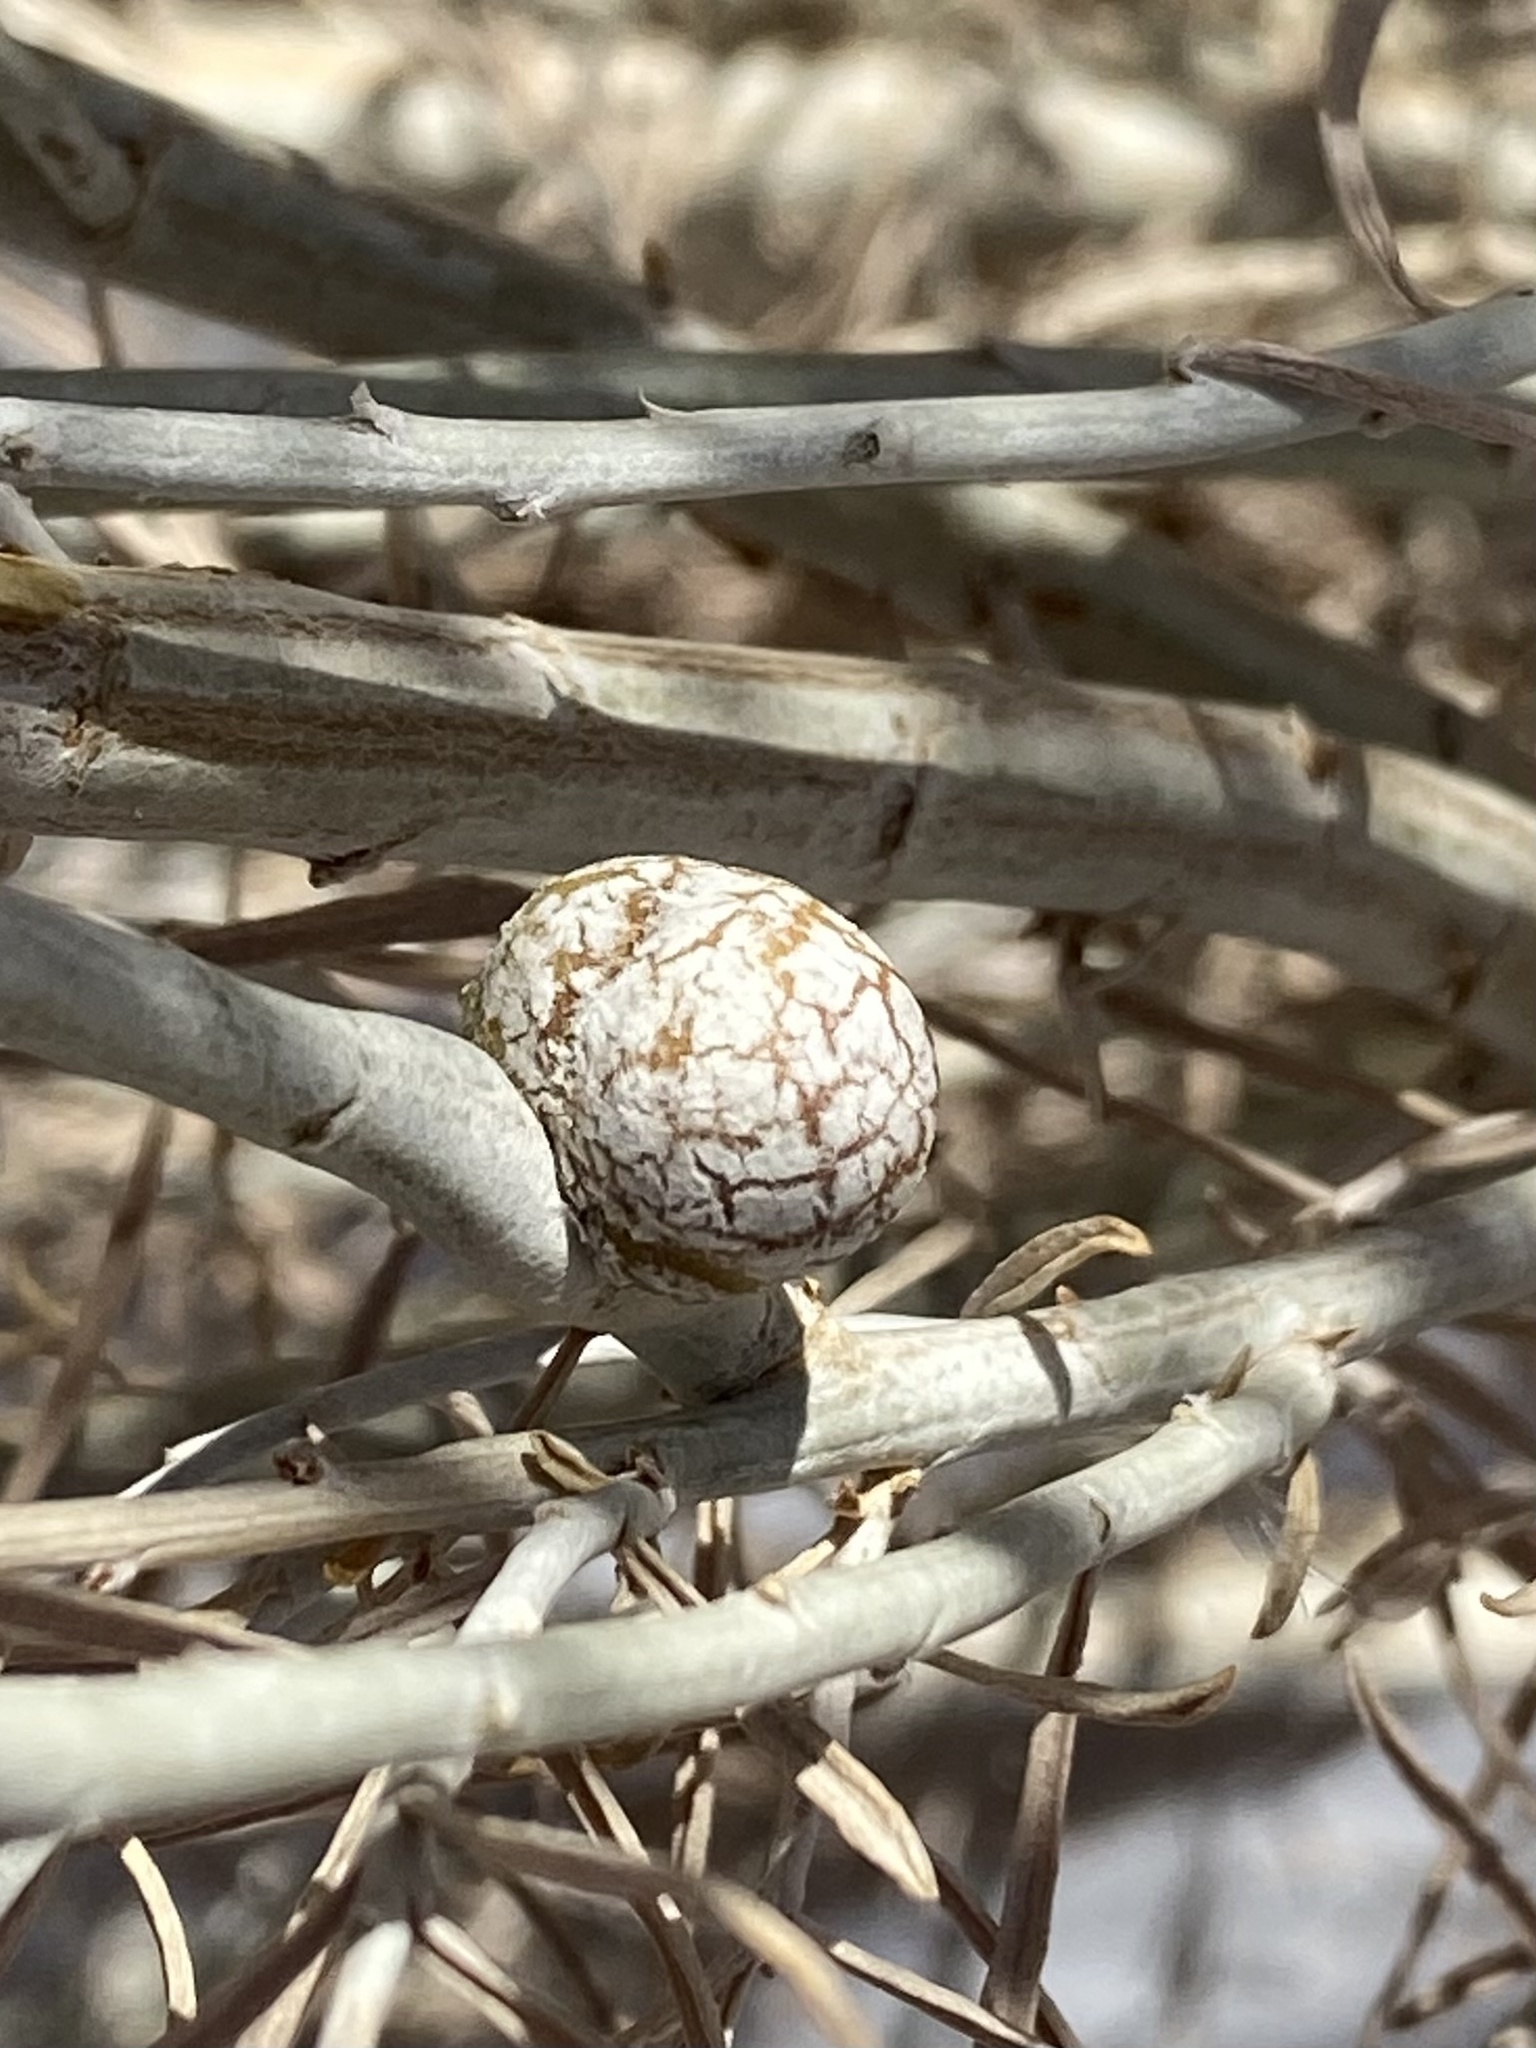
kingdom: Animalia
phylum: Arthropoda
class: Insecta
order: Diptera
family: Tephritidae
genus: Aciurina
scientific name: Aciurina trixa
